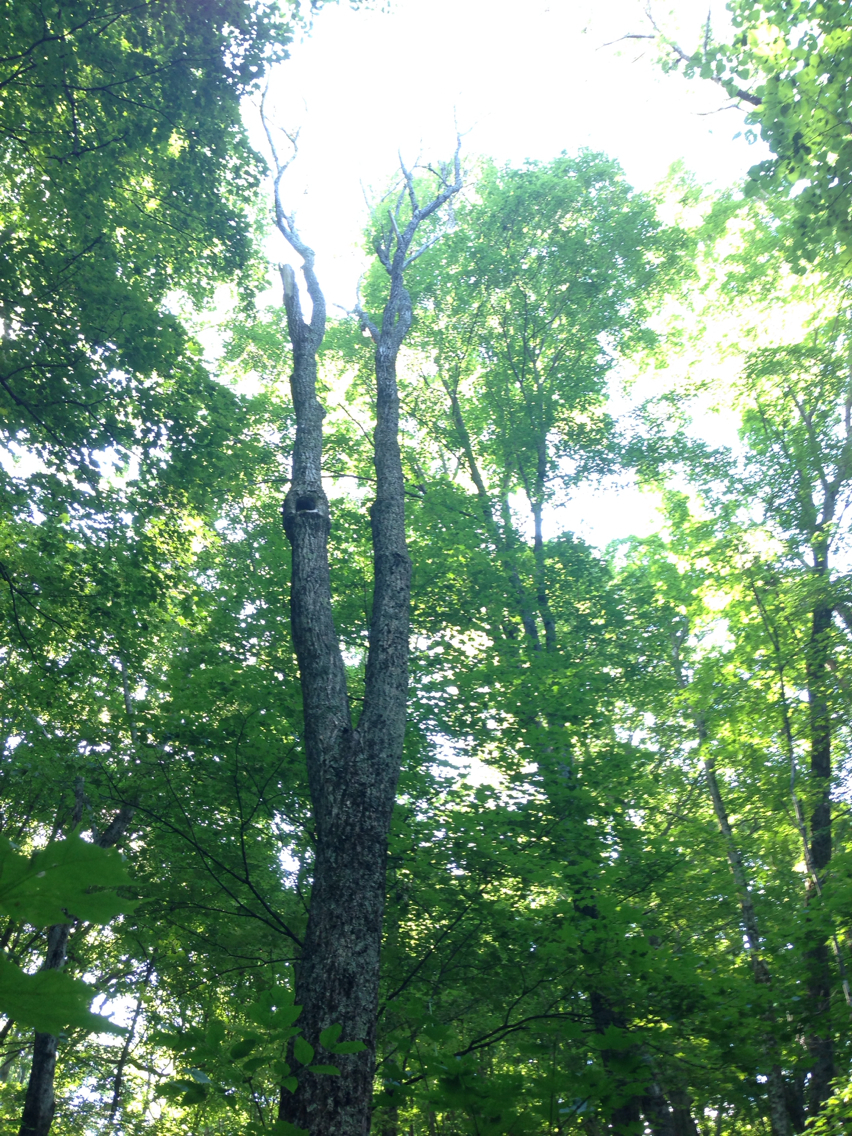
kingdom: Plantae
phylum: Tracheophyta
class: Magnoliopsida
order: Fagales
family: Juglandaceae
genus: Juglans
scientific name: Juglans cinerea
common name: Butternut
